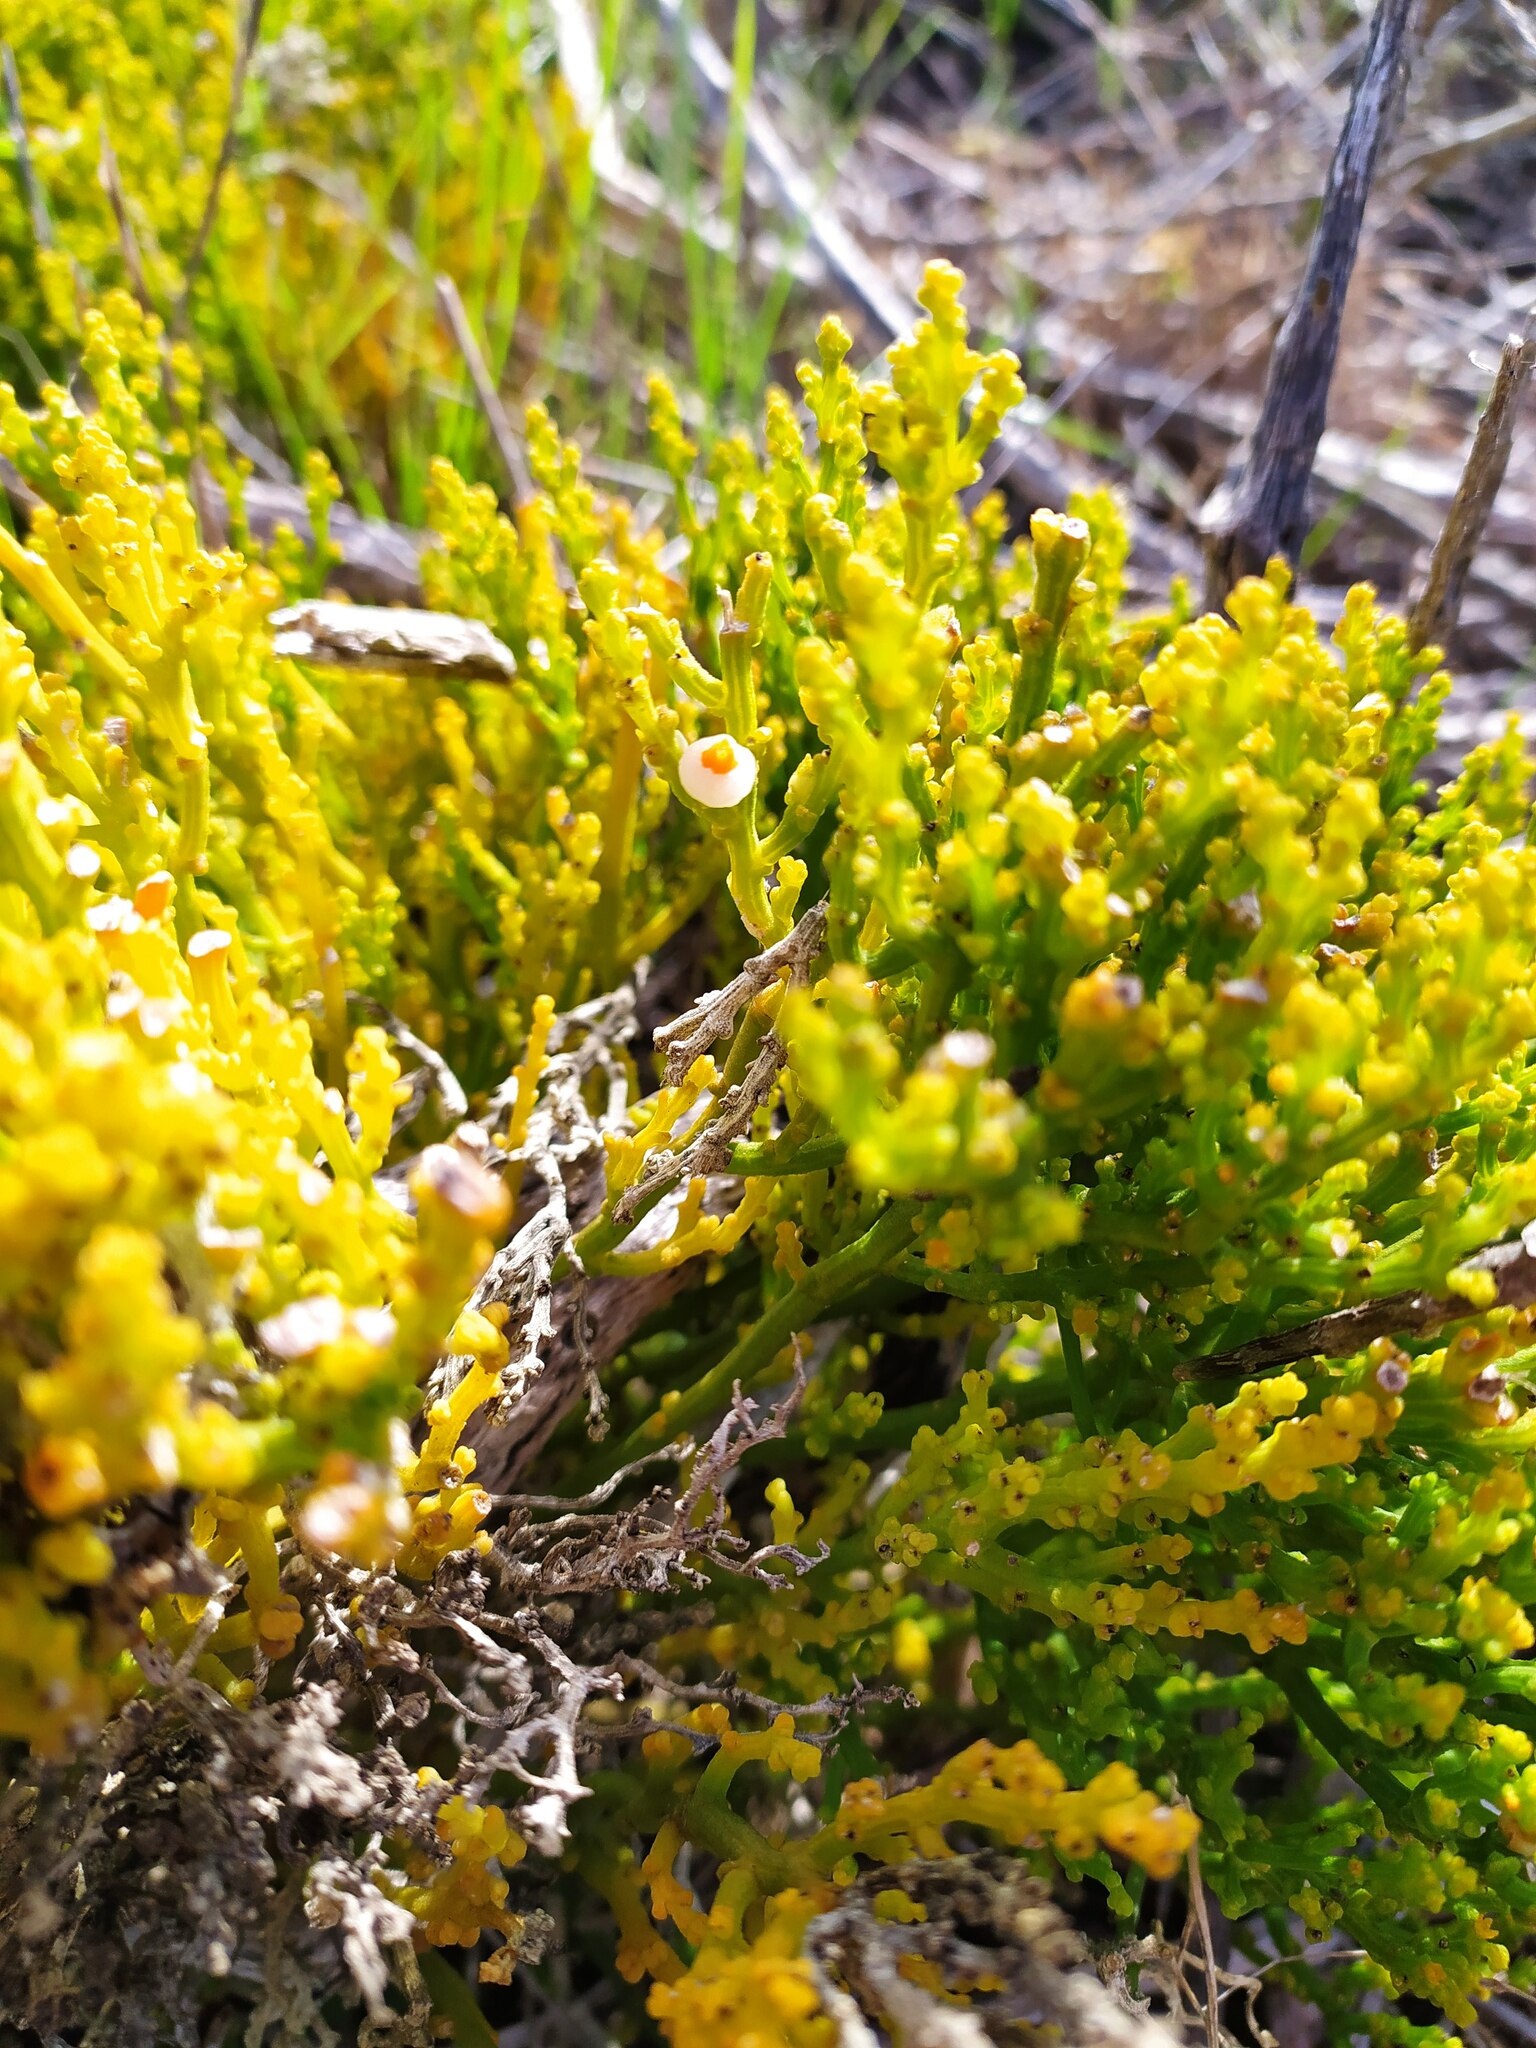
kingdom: Plantae
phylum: Tracheophyta
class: Magnoliopsida
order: Santalales
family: Thesiaceae
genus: Thesium
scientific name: Thesium fragile
